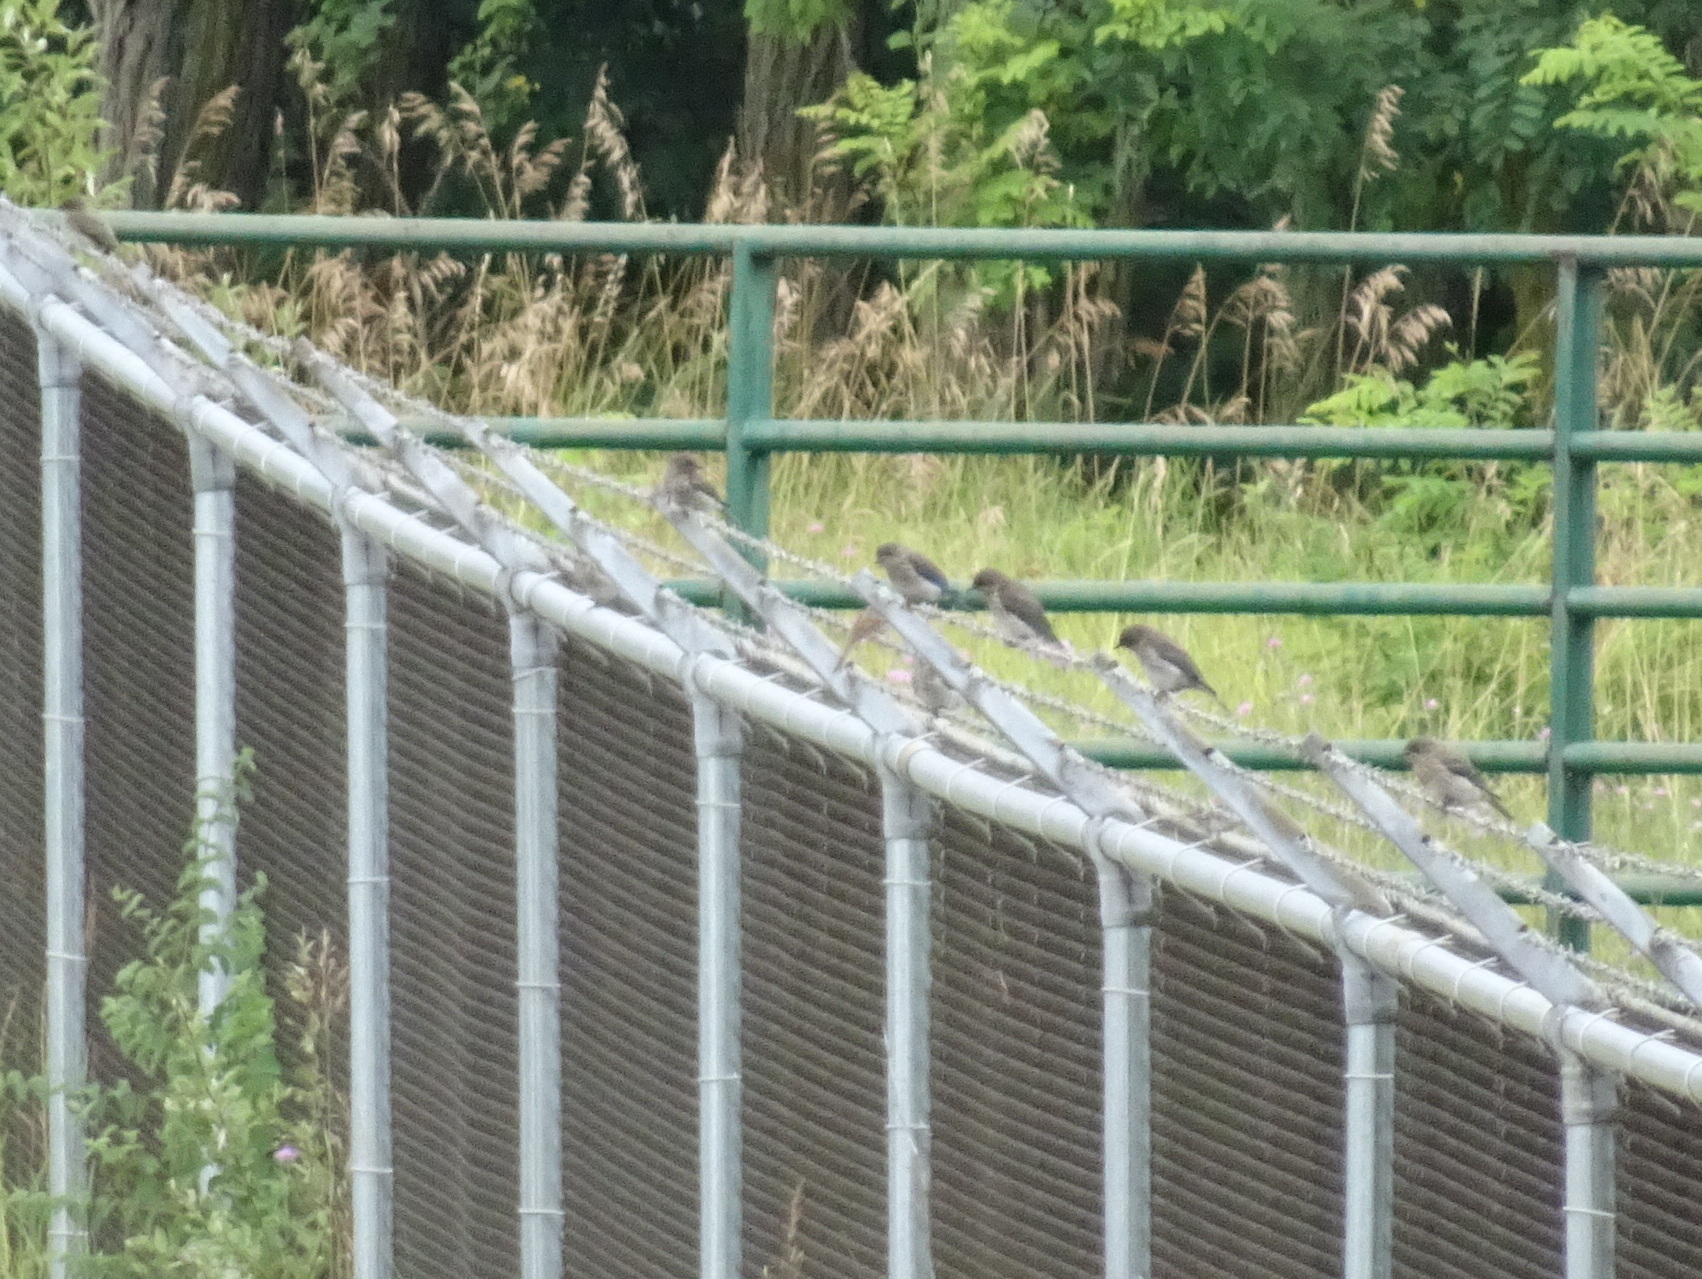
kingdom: Animalia
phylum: Chordata
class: Aves
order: Passeriformes
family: Turdidae
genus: Sialia
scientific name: Sialia sialis
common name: Eastern bluebird
